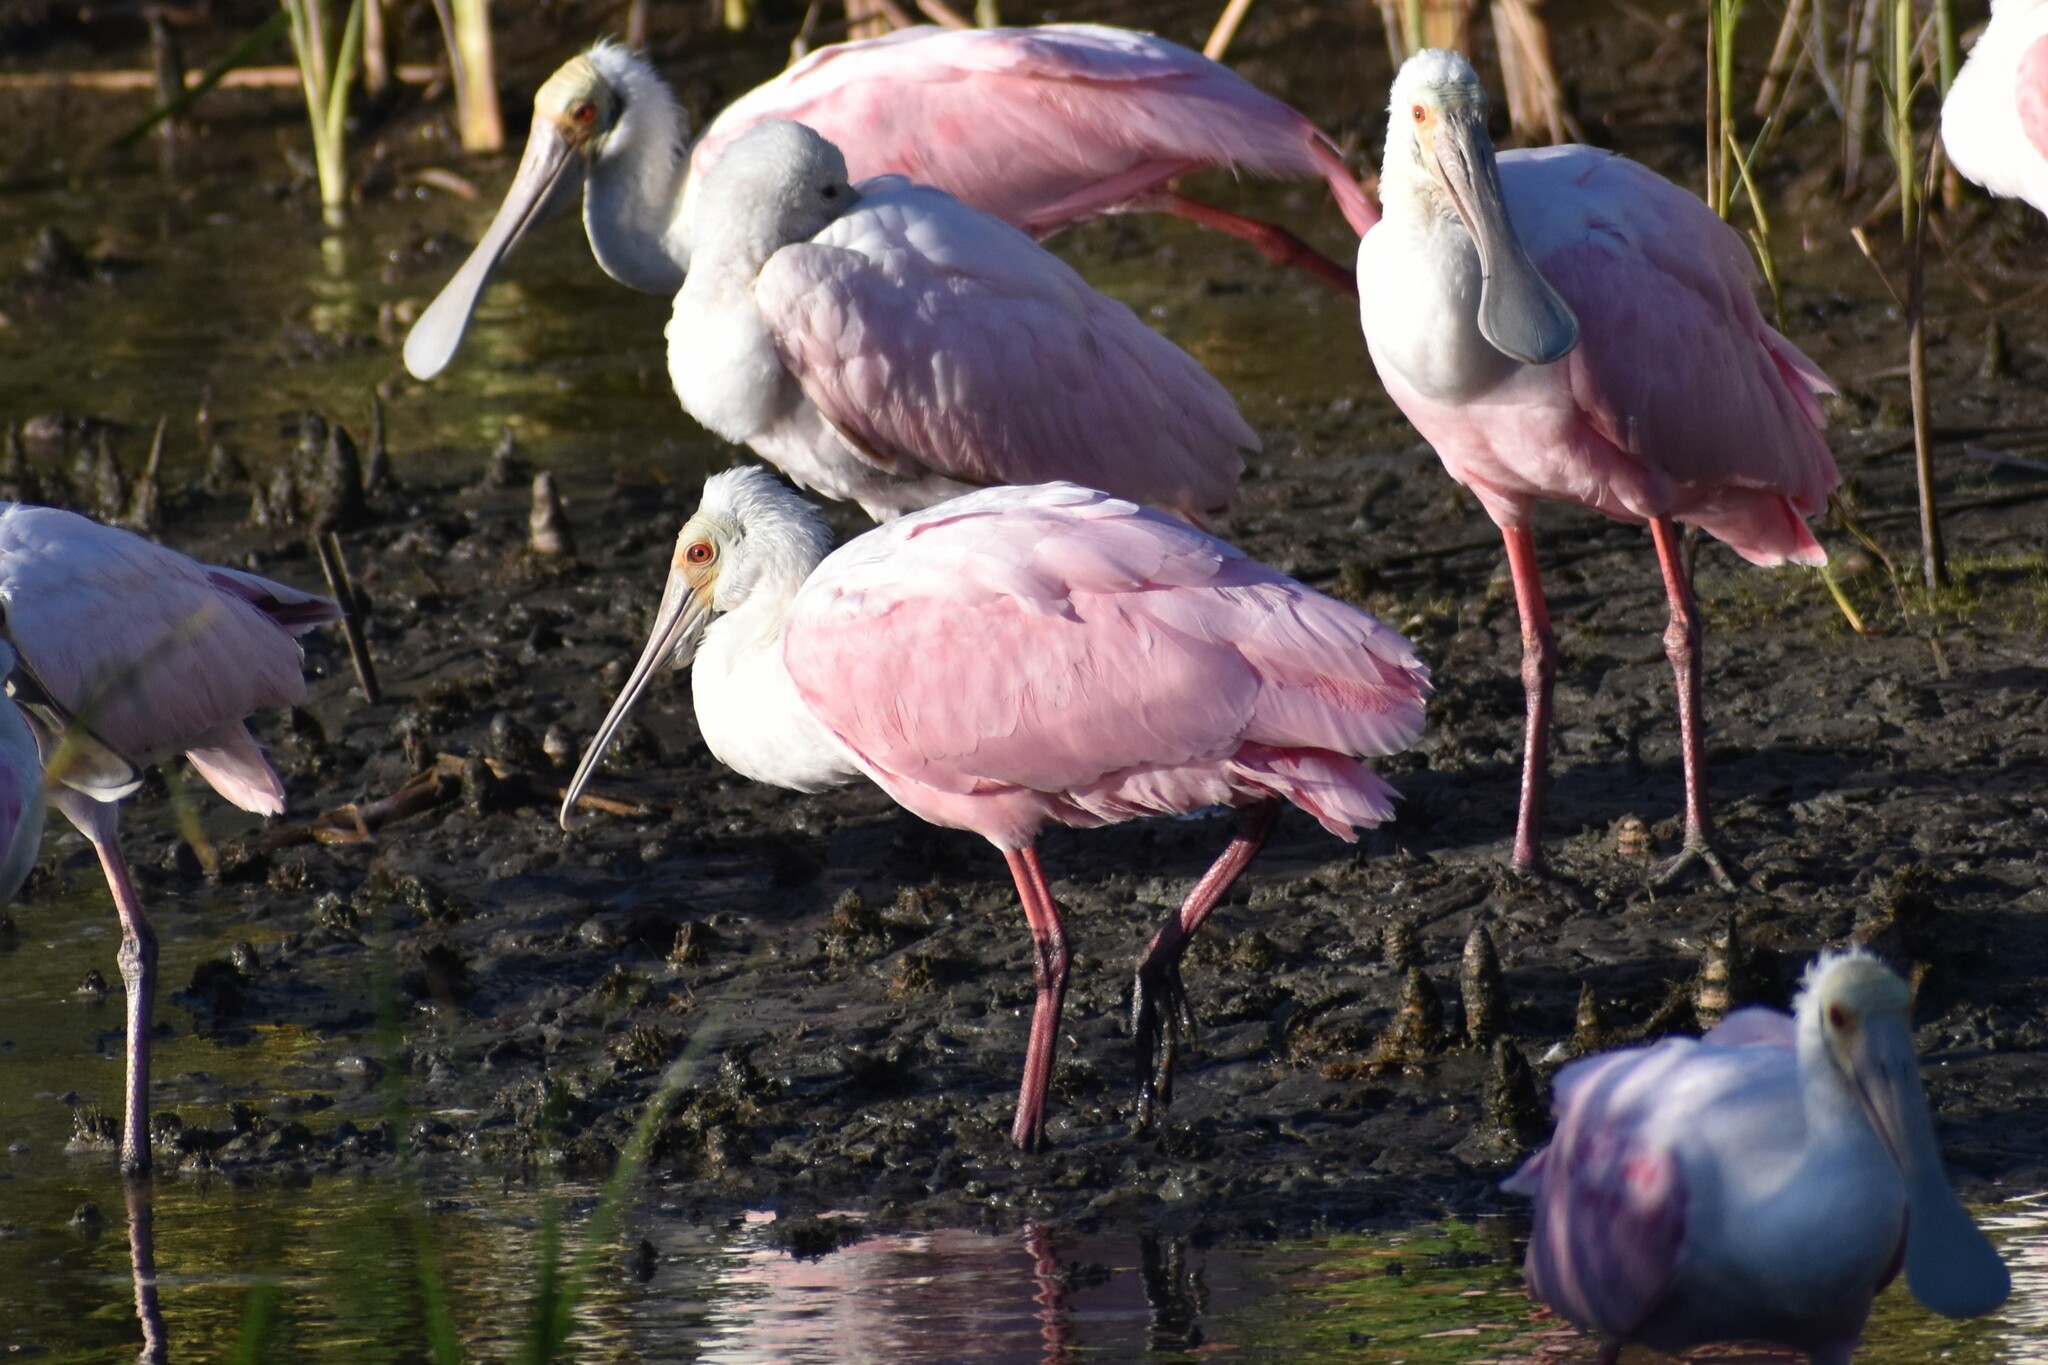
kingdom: Animalia
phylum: Chordata
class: Aves
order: Pelecaniformes
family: Threskiornithidae
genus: Platalea
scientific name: Platalea ajaja
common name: Roseate spoonbill
